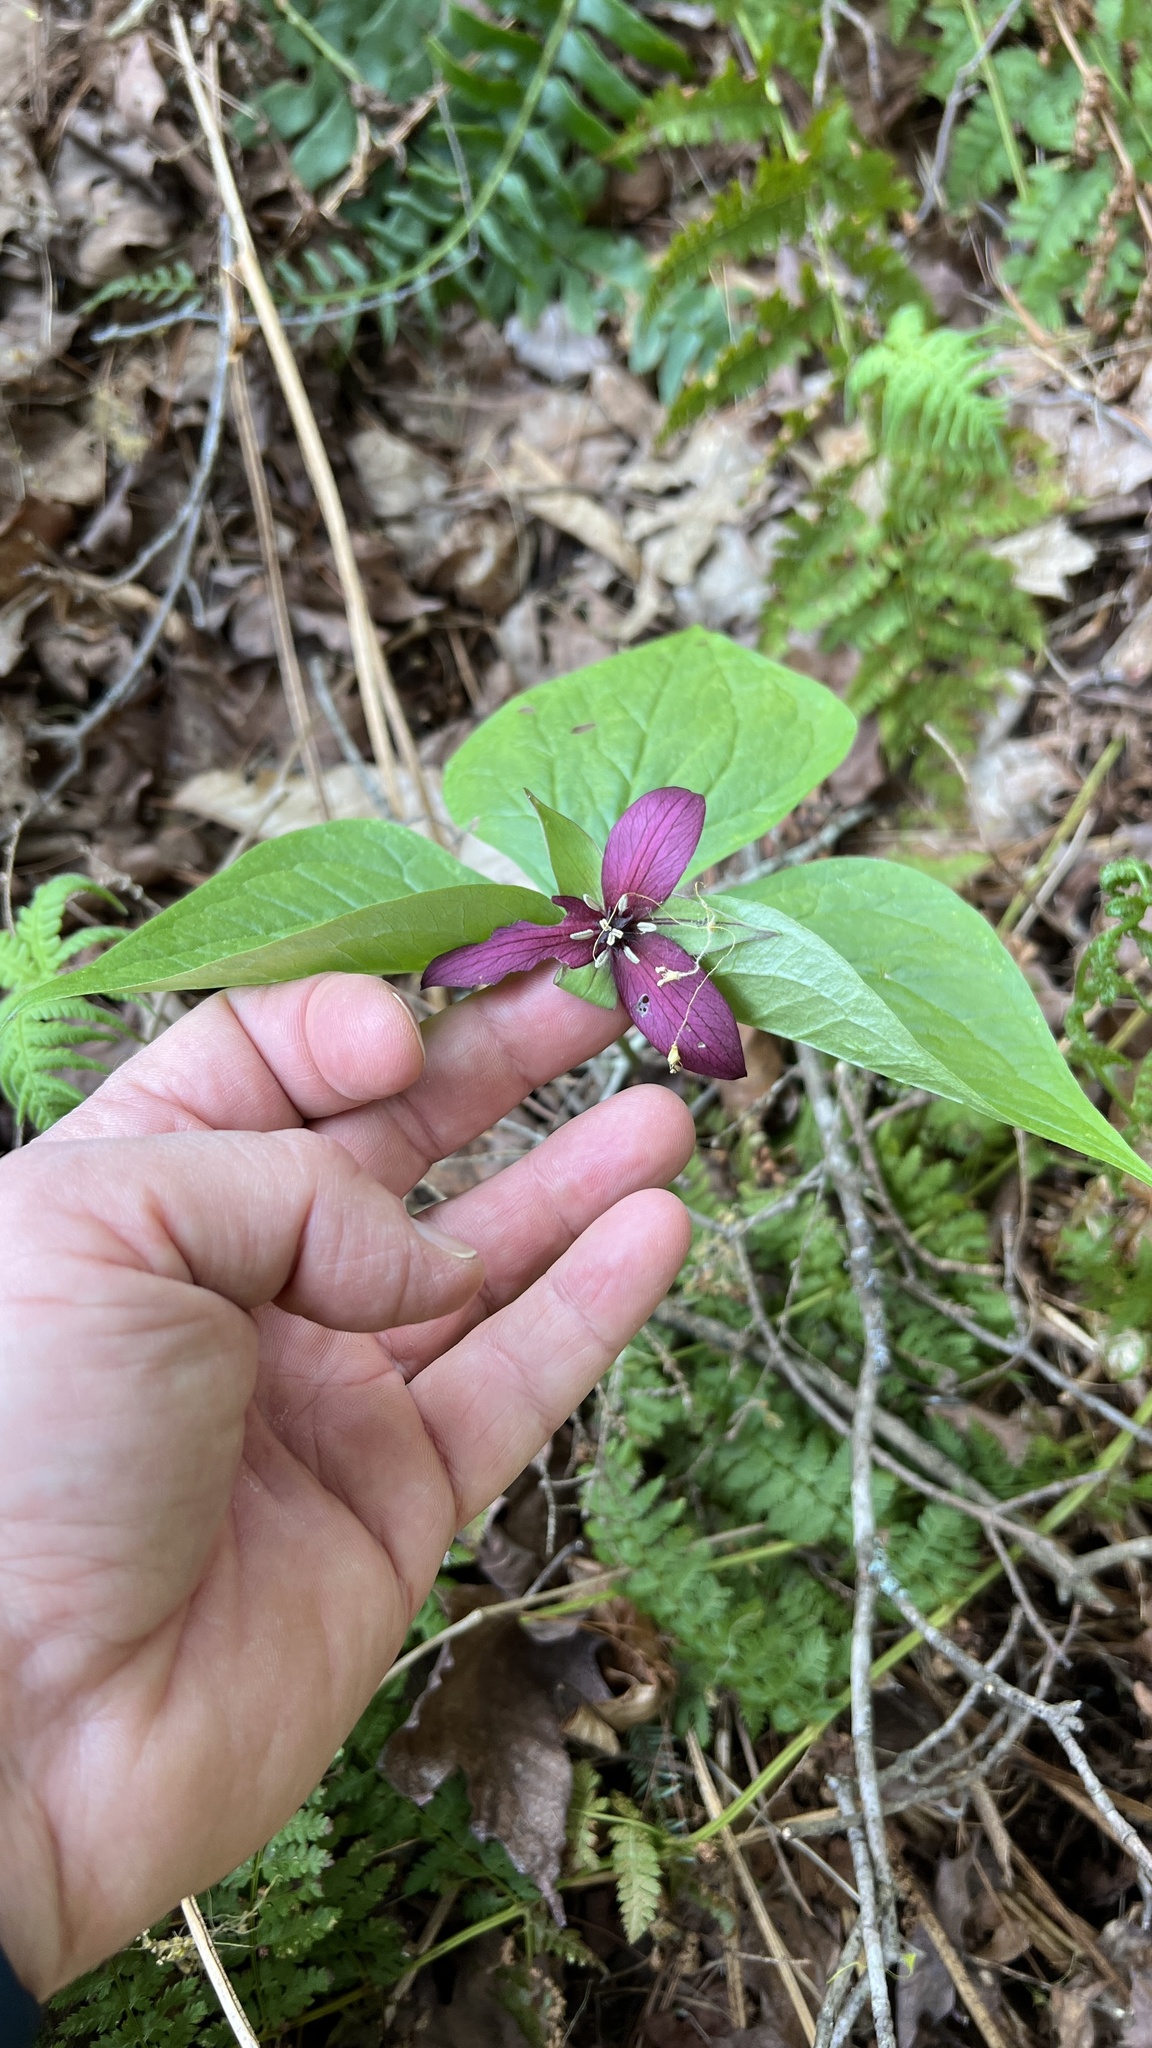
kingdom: Plantae
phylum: Tracheophyta
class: Liliopsida
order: Liliales
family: Melanthiaceae
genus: Trillium
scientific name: Trillium erectum
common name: Purple trillium
